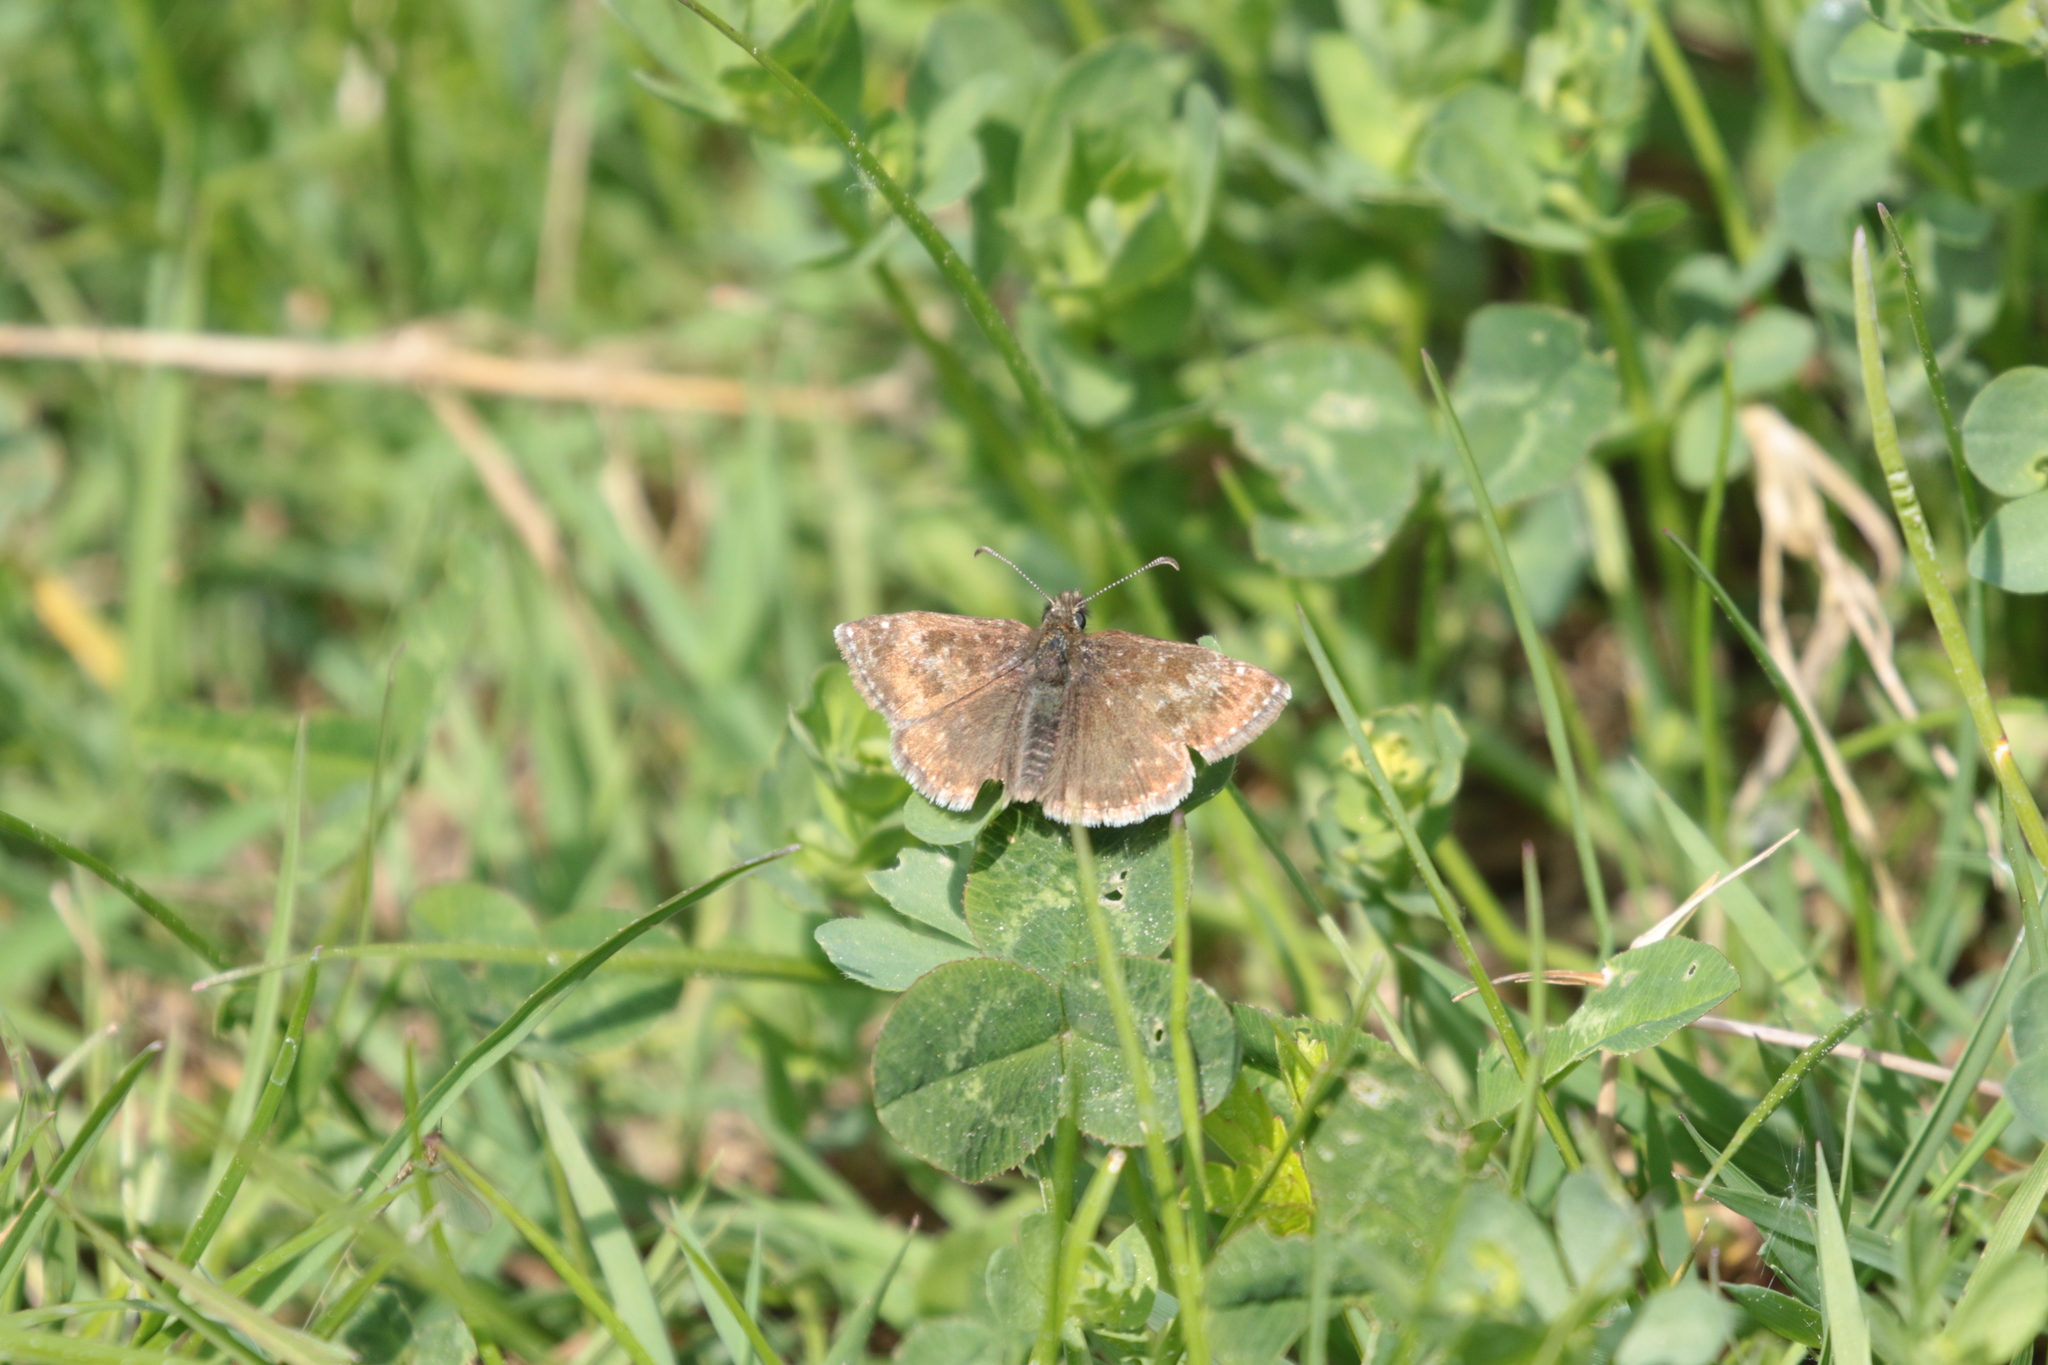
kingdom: Animalia
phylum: Arthropoda
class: Insecta
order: Lepidoptera
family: Hesperiidae
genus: Erynnis
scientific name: Erynnis tages
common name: Dingy skipper
